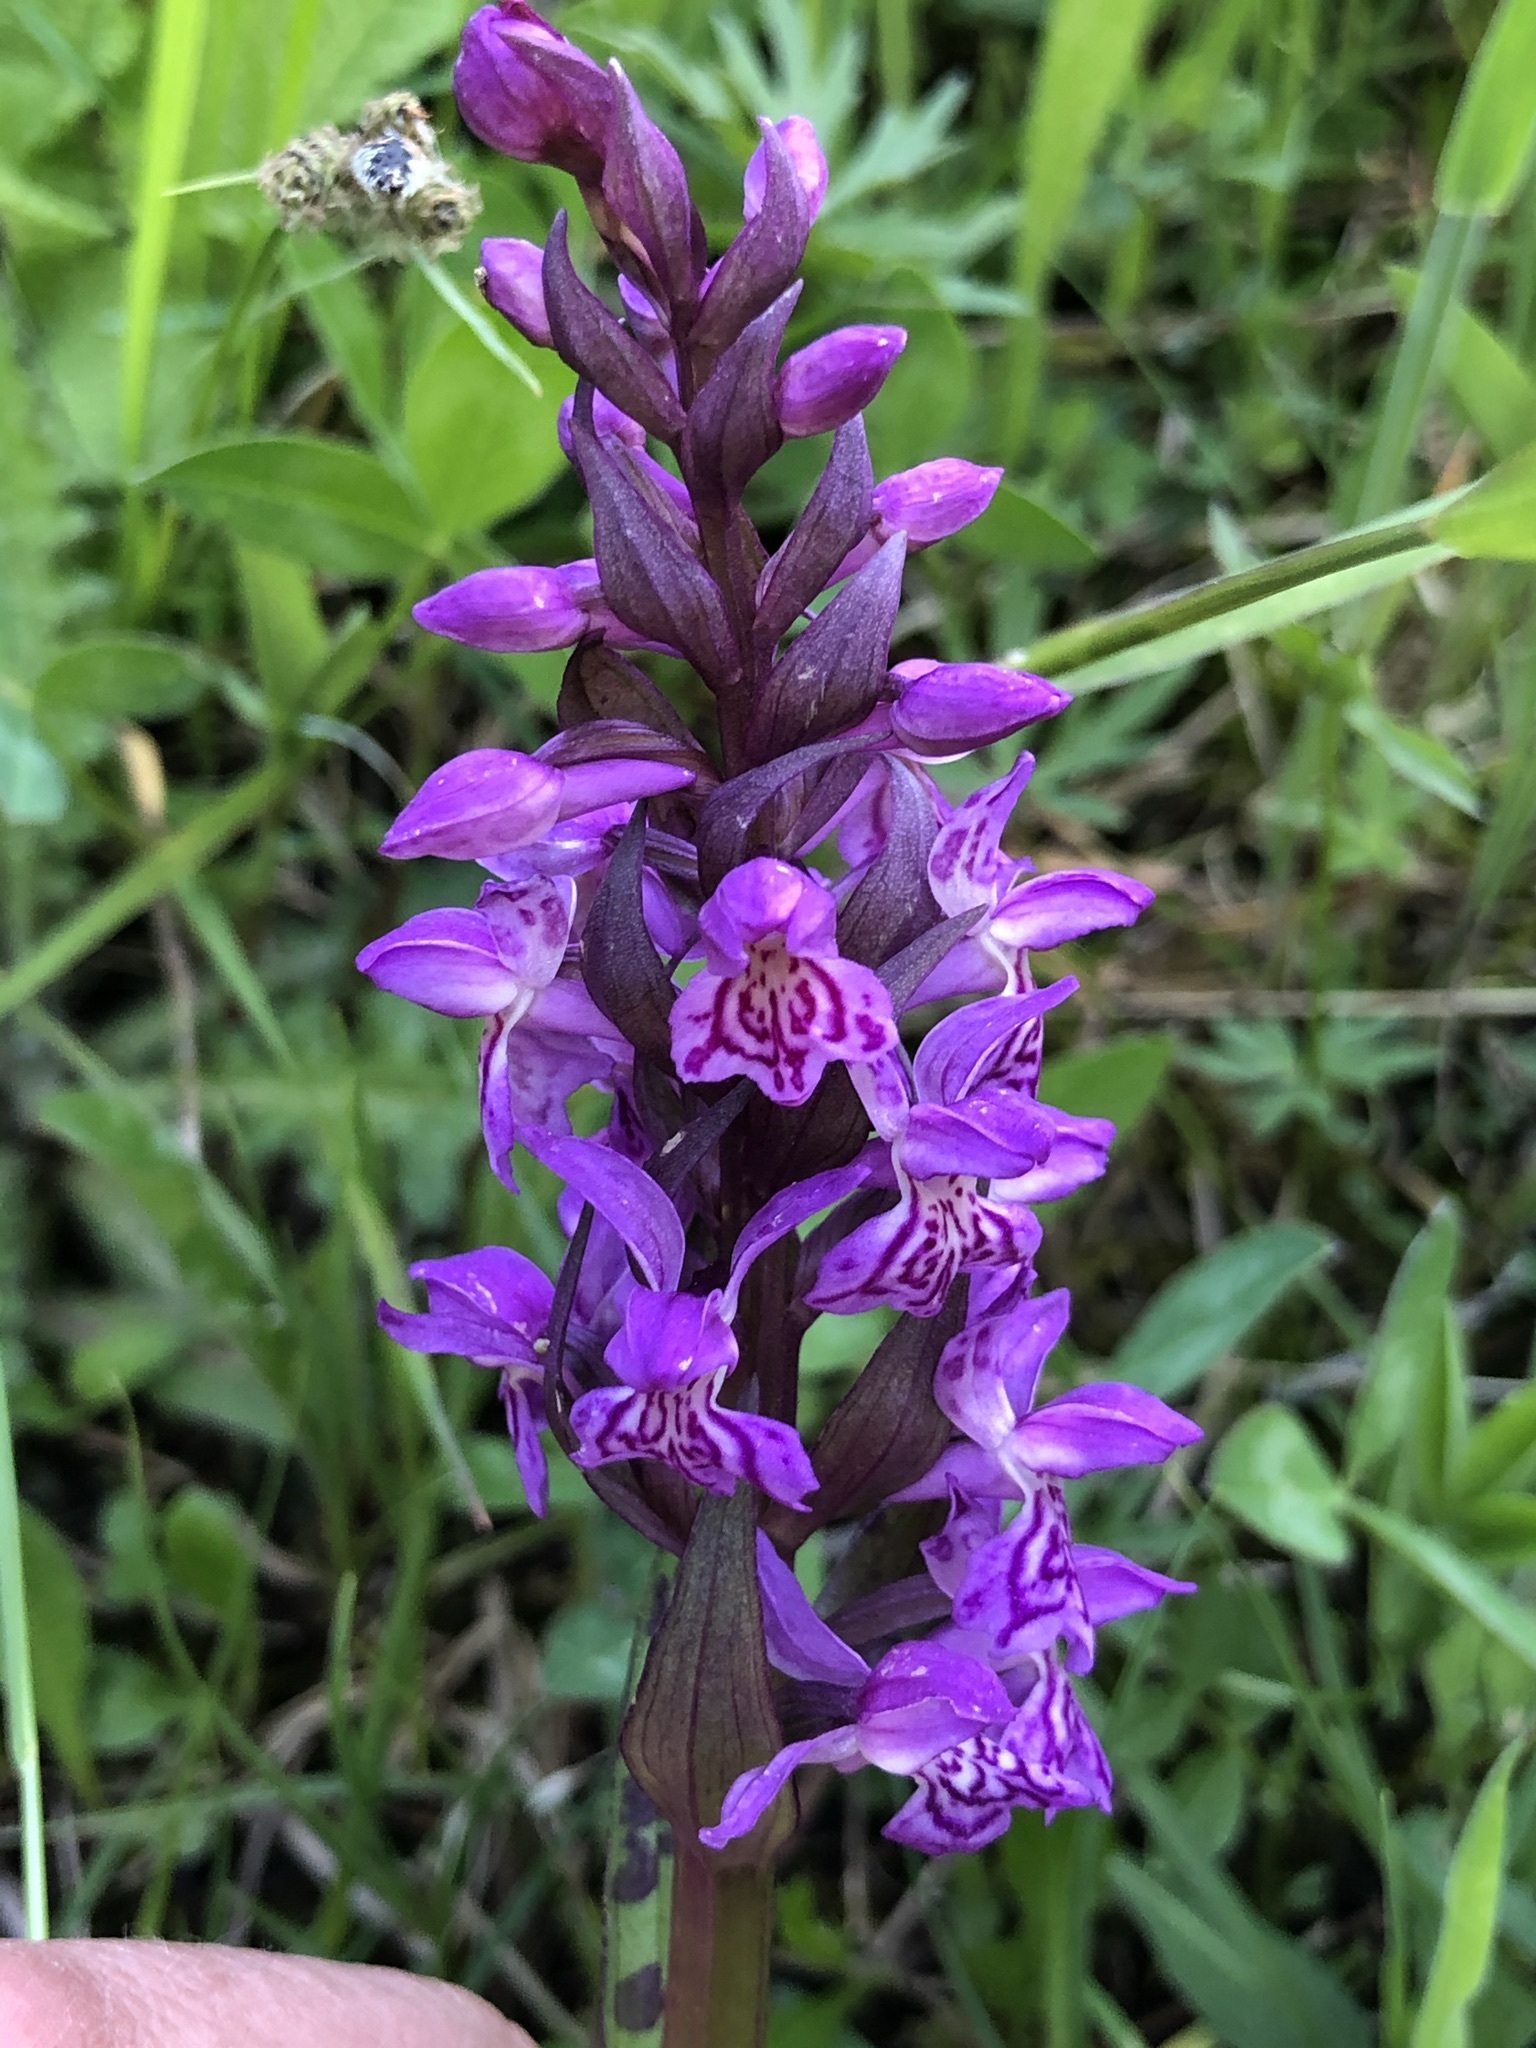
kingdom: Plantae
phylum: Tracheophyta
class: Liliopsida
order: Asparagales
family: Orchidaceae
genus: Dactylorhiza
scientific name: Dactylorhiza majalis
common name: Marsh orchid
